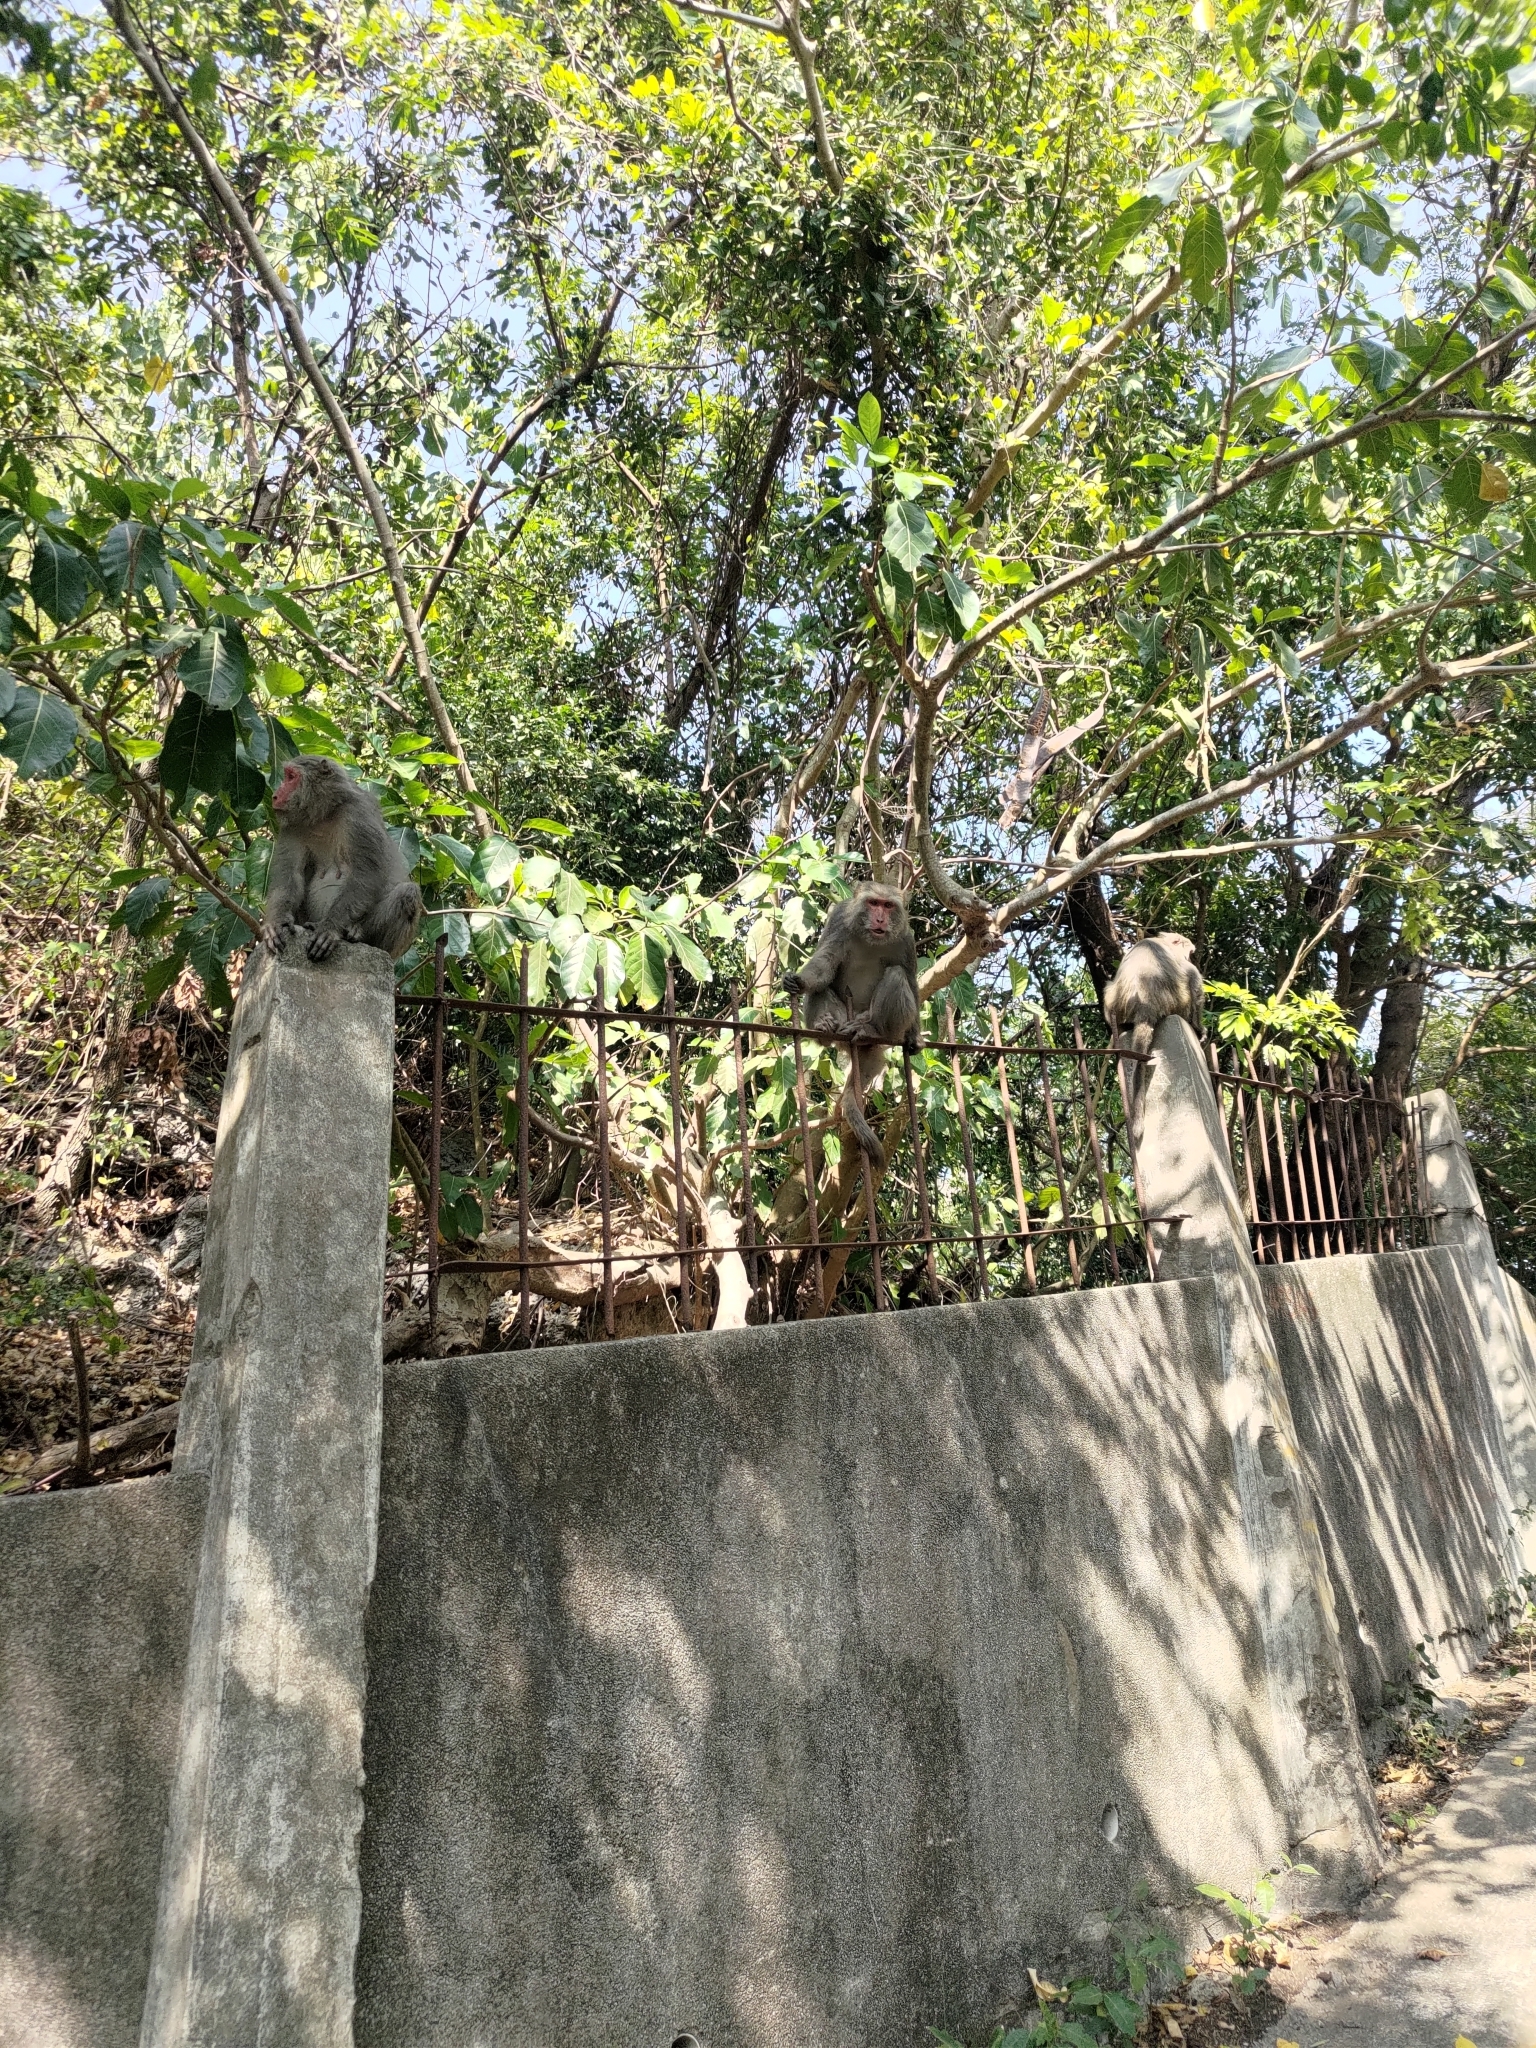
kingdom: Animalia
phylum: Chordata
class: Mammalia
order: Primates
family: Cercopithecidae
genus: Macaca
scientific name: Macaca cyclopis
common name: Formosan rock macaque
